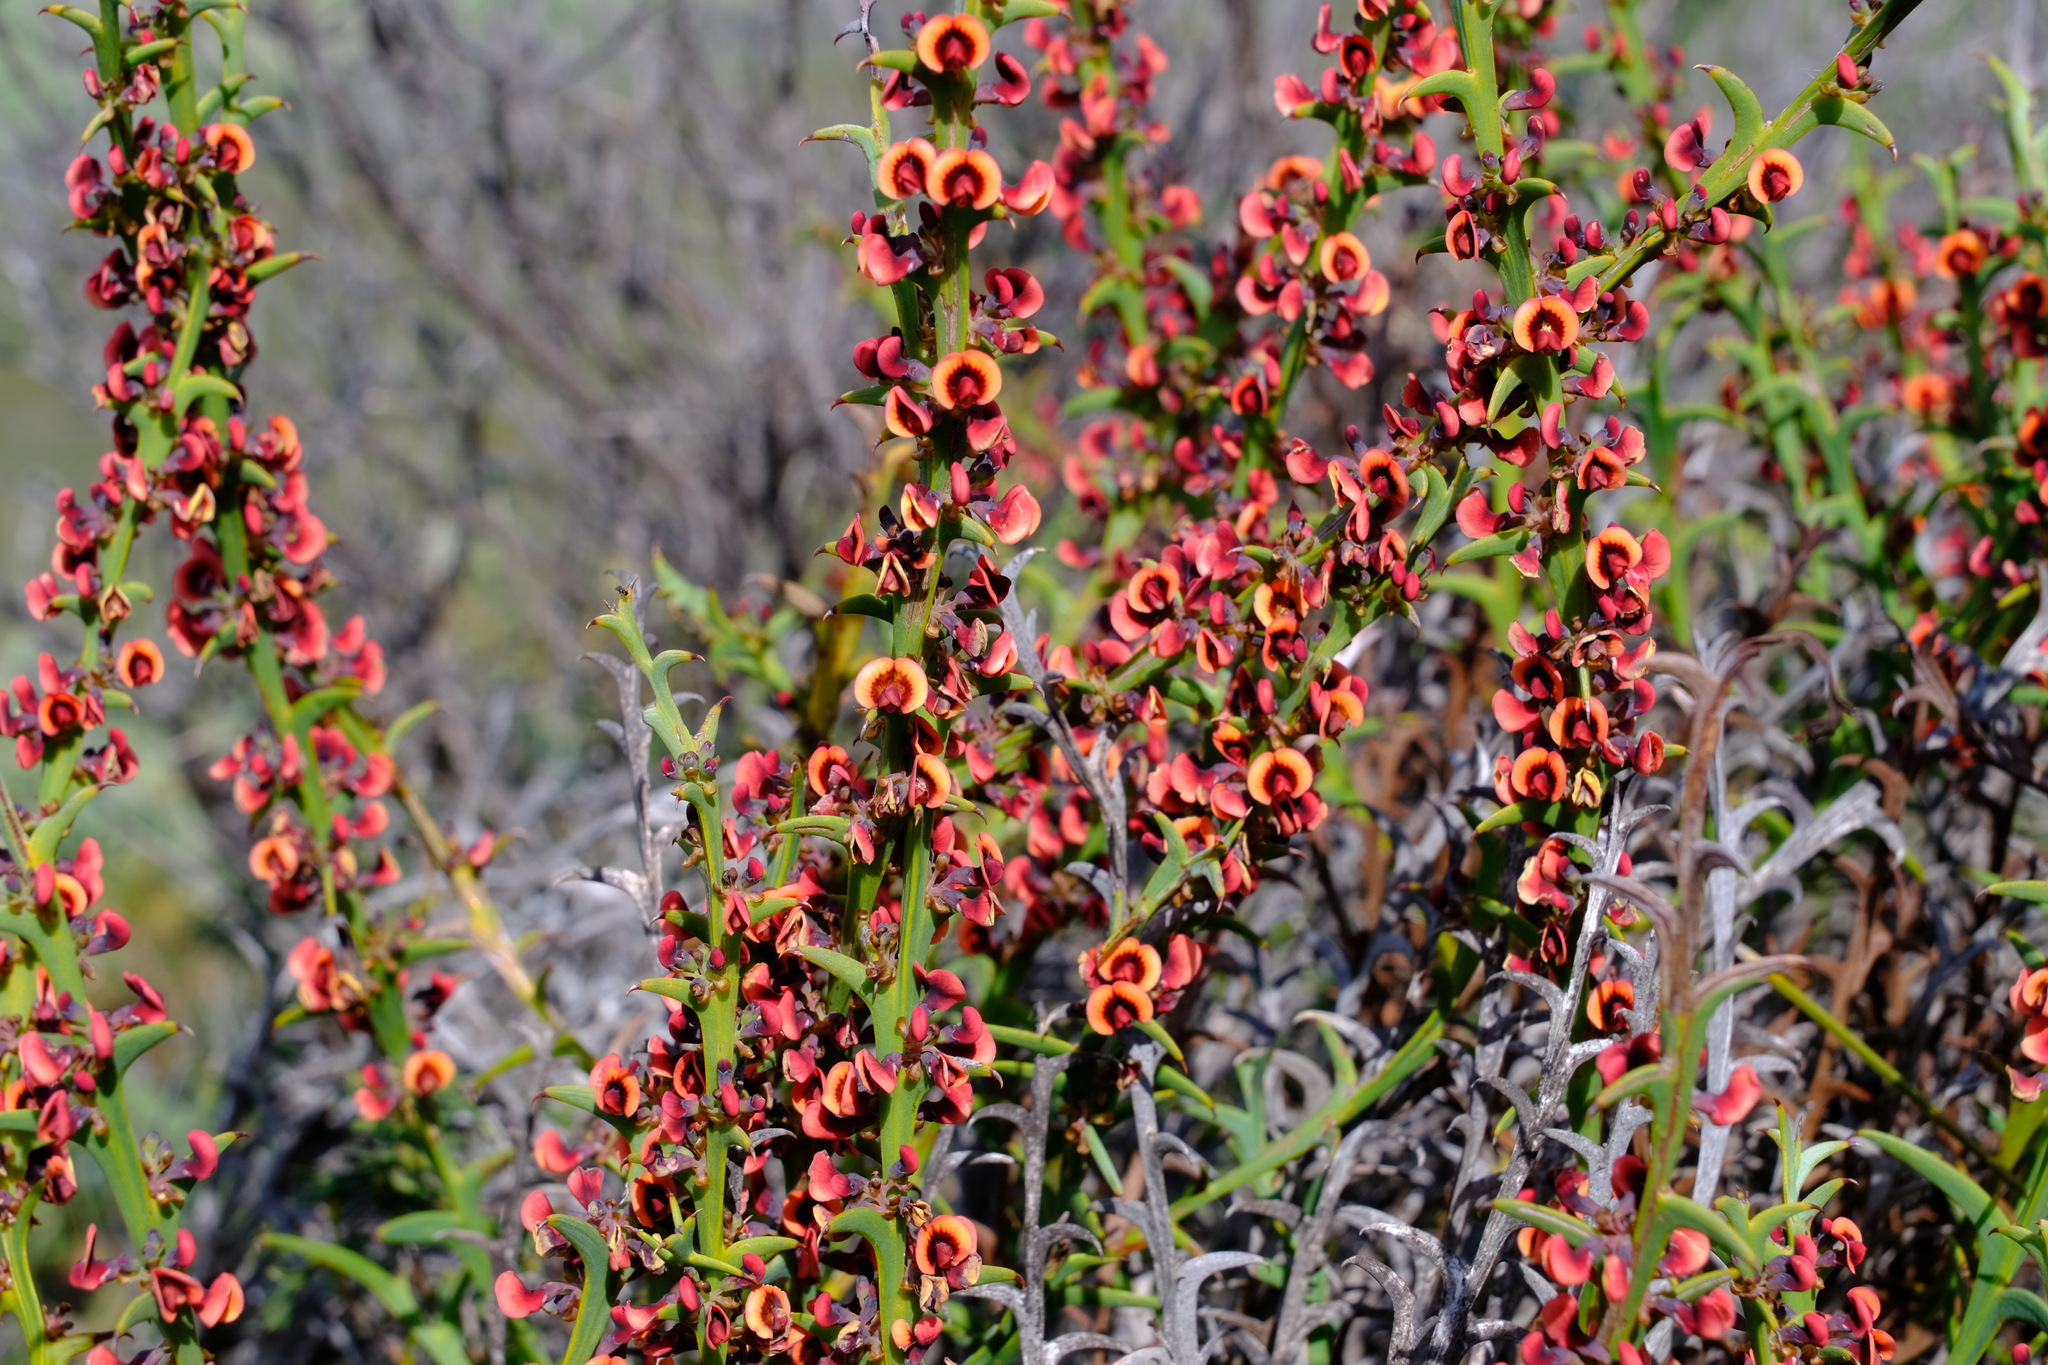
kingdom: Plantae
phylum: Tracheophyta
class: Magnoliopsida
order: Fabales
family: Fabaceae
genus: Daviesia
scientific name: Daviesia decurrens
